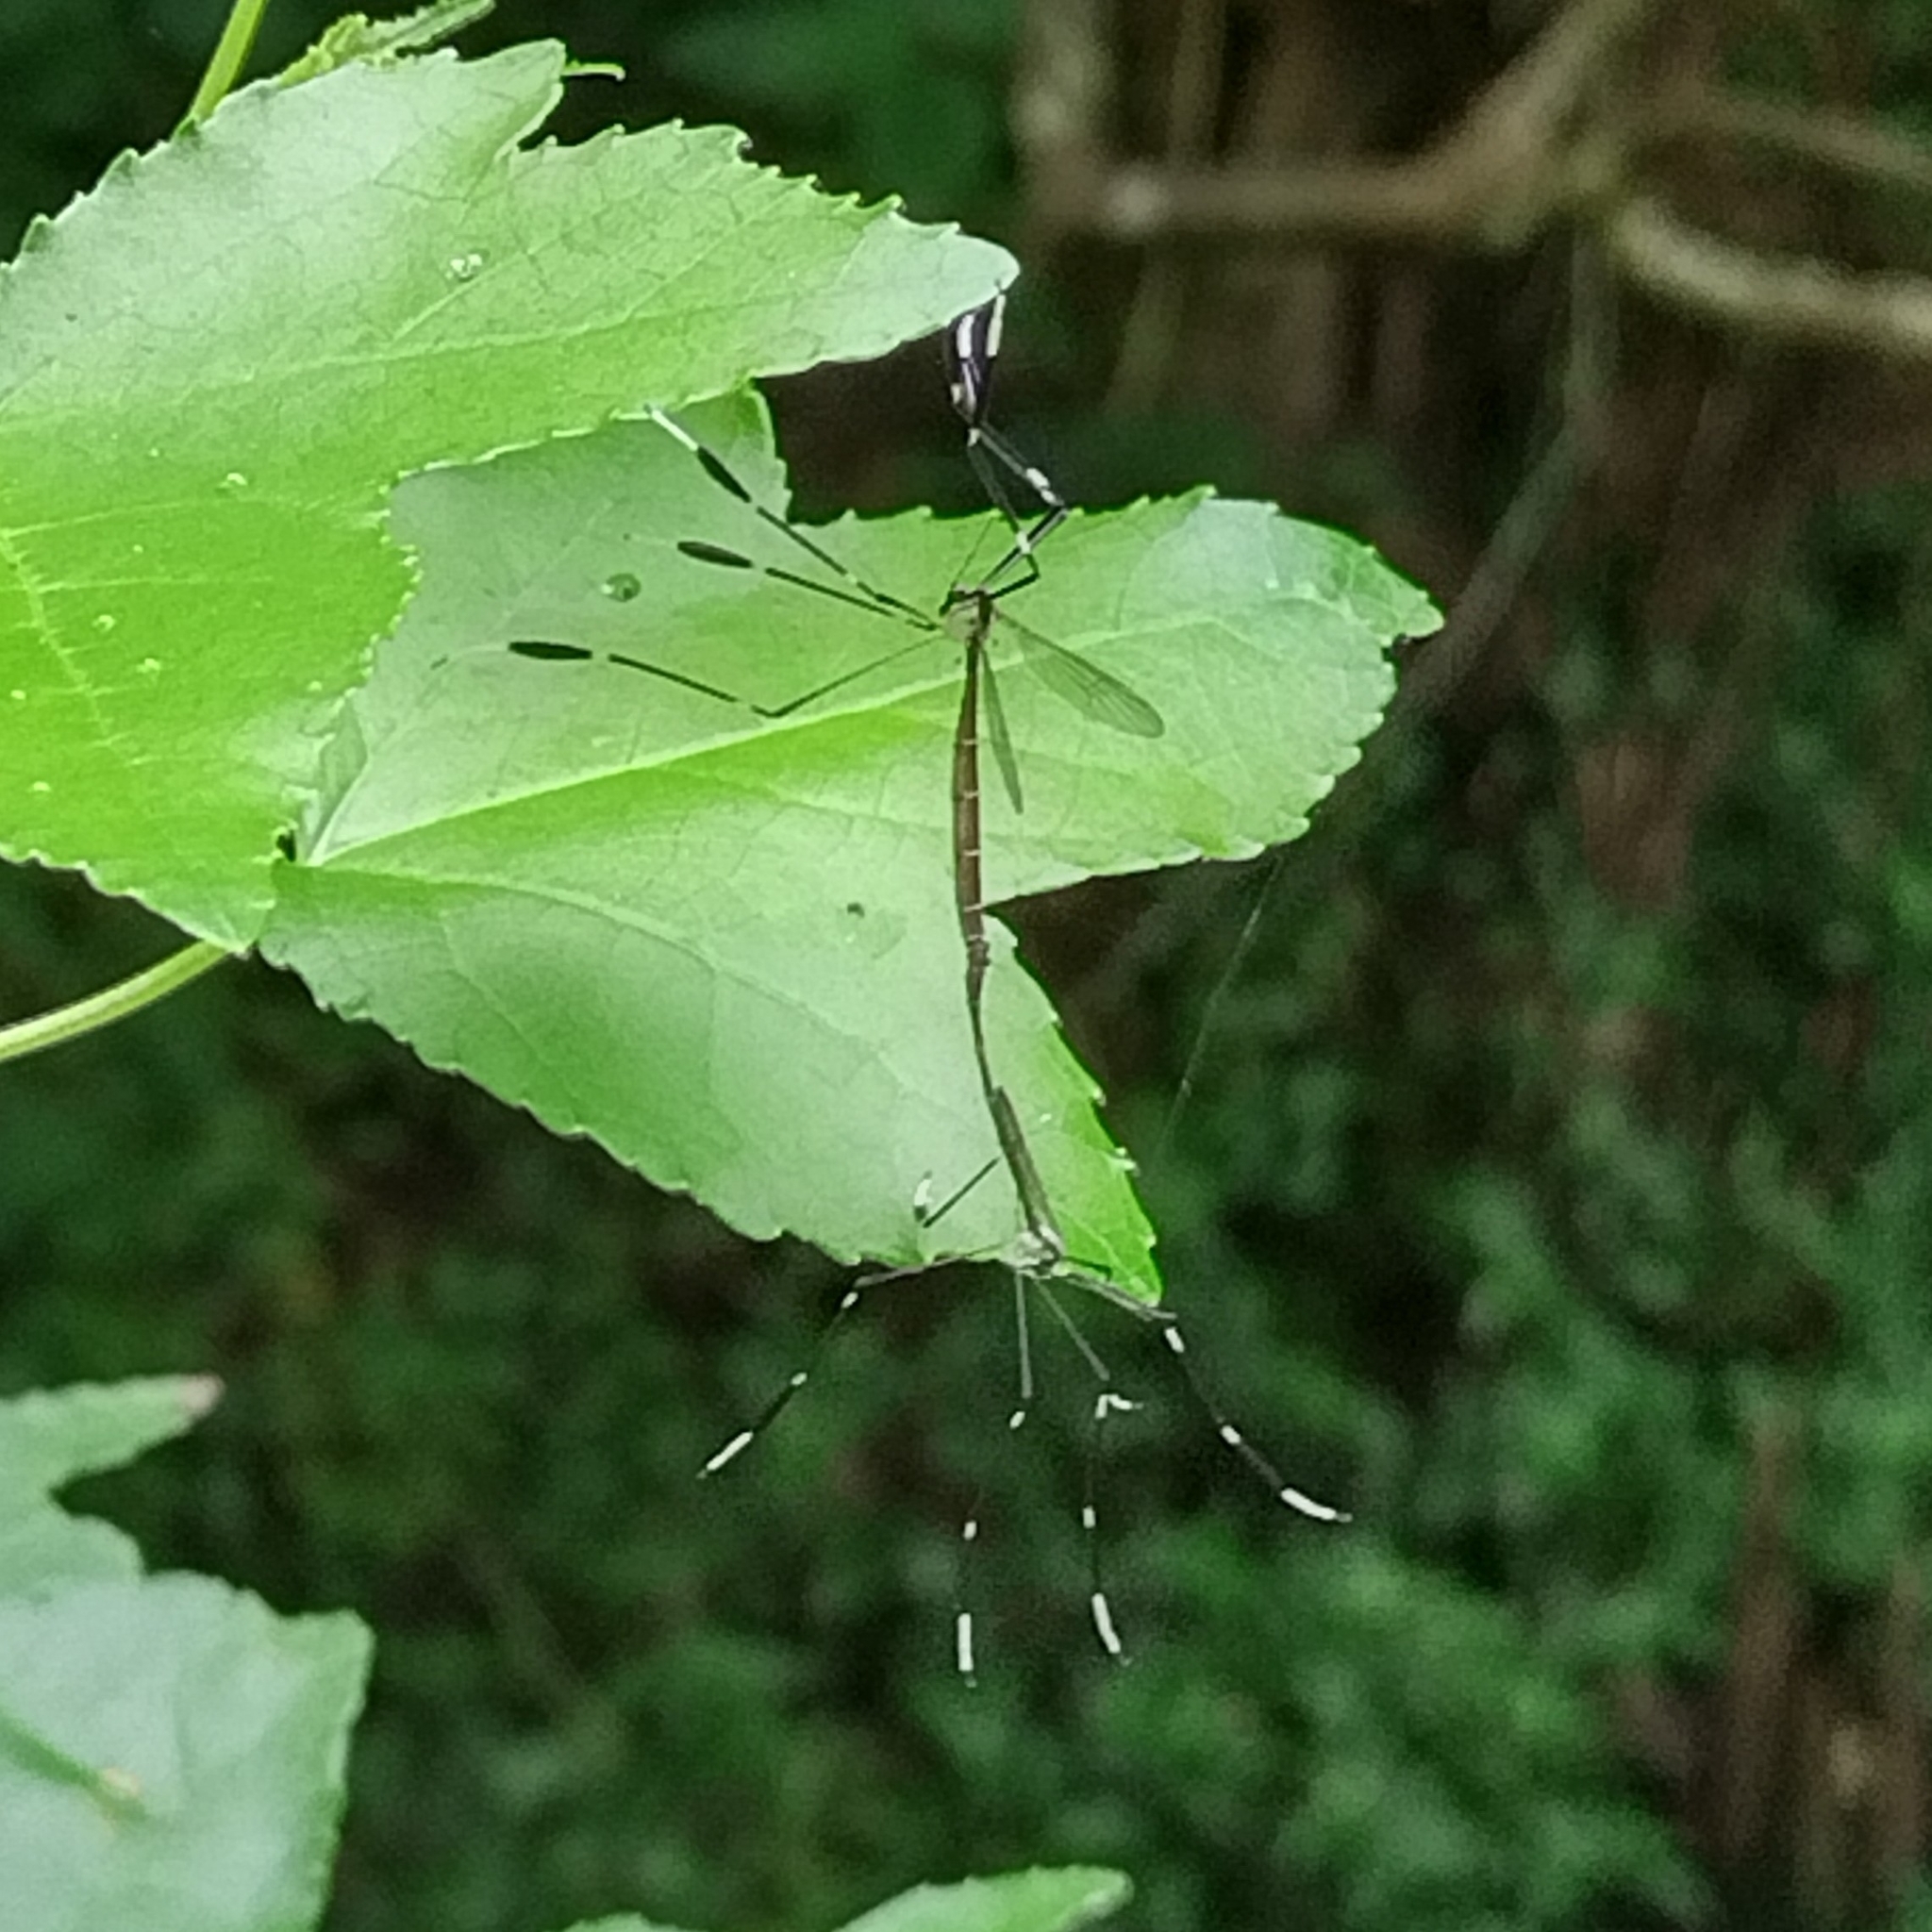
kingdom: Animalia
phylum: Arthropoda
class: Insecta
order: Diptera
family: Ptychopteridae
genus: Bittacomorpha
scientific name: Bittacomorpha clavipes
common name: Eastern phantom crane fly
